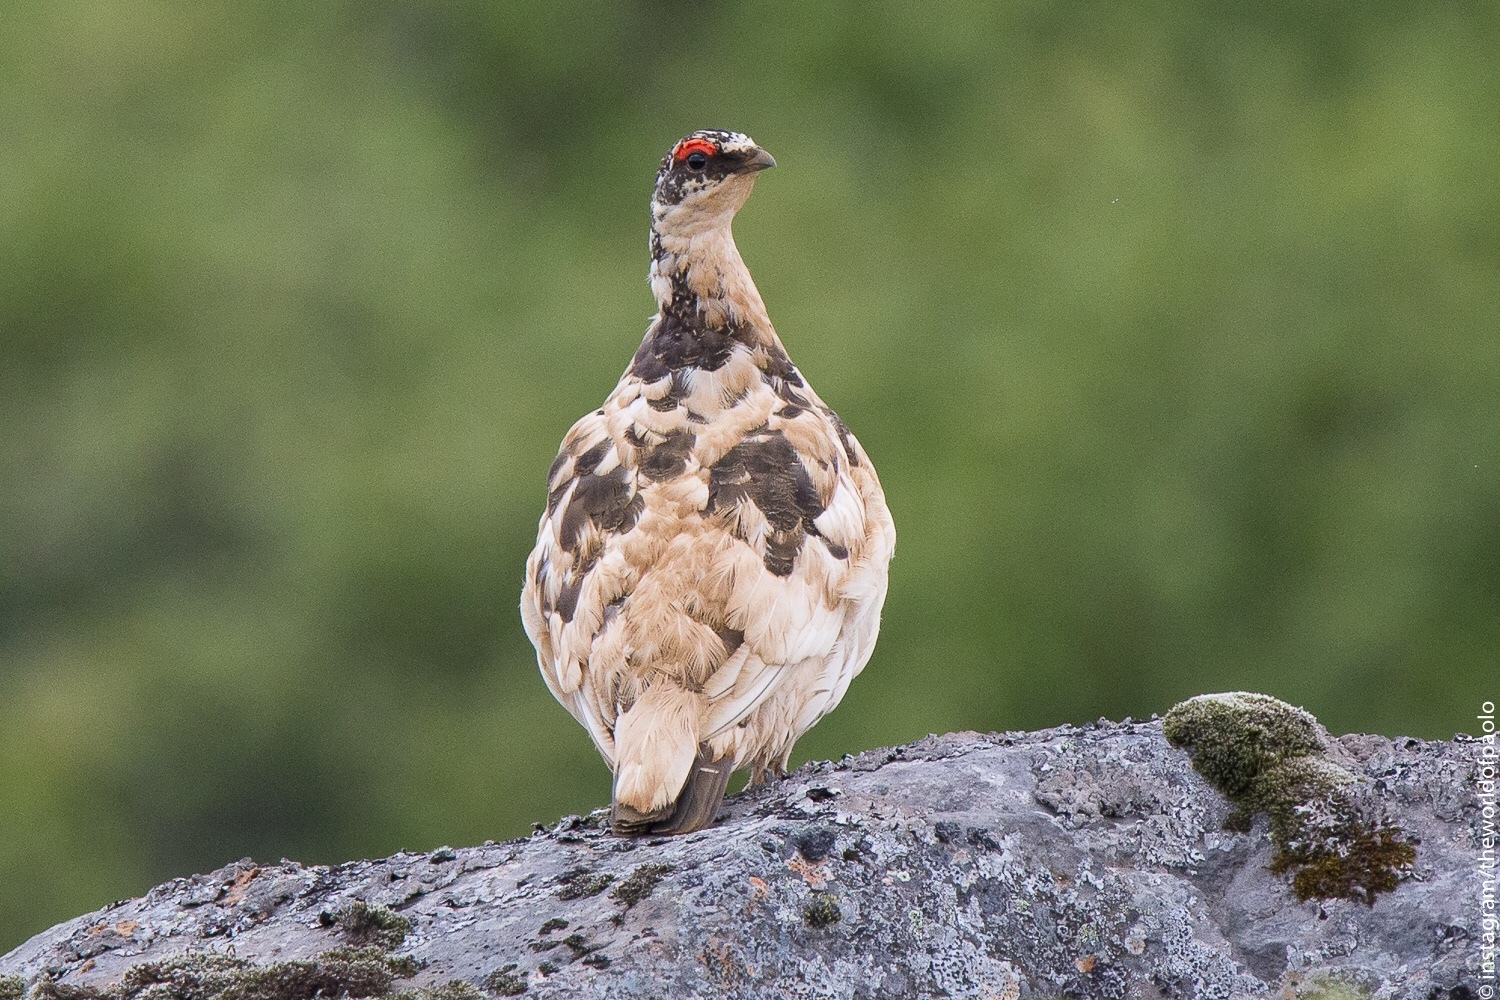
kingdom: Animalia
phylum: Chordata
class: Aves
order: Galliformes
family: Phasianidae
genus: Lagopus
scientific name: Lagopus muta
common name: Rock ptarmigan
